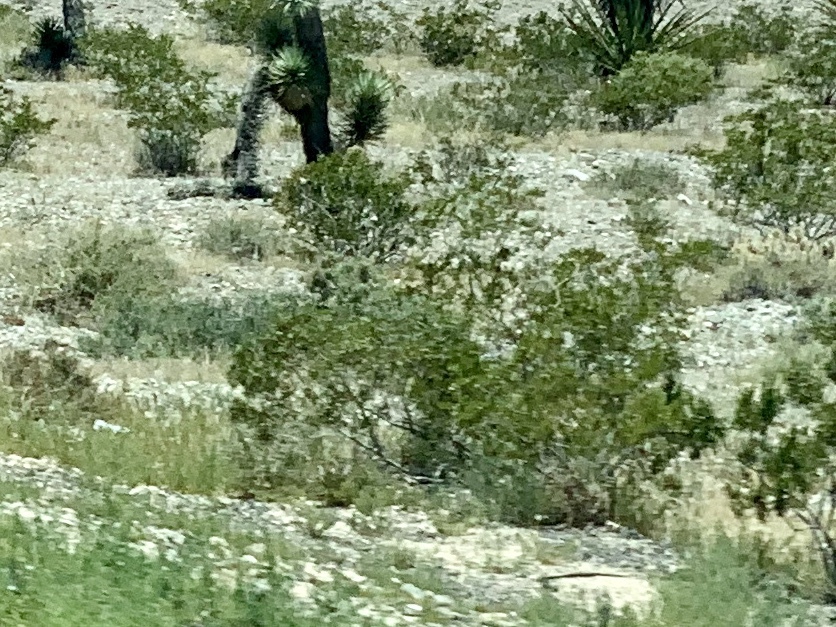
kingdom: Plantae
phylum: Tracheophyta
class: Magnoliopsida
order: Zygophyllales
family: Zygophyllaceae
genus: Larrea
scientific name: Larrea tridentata
